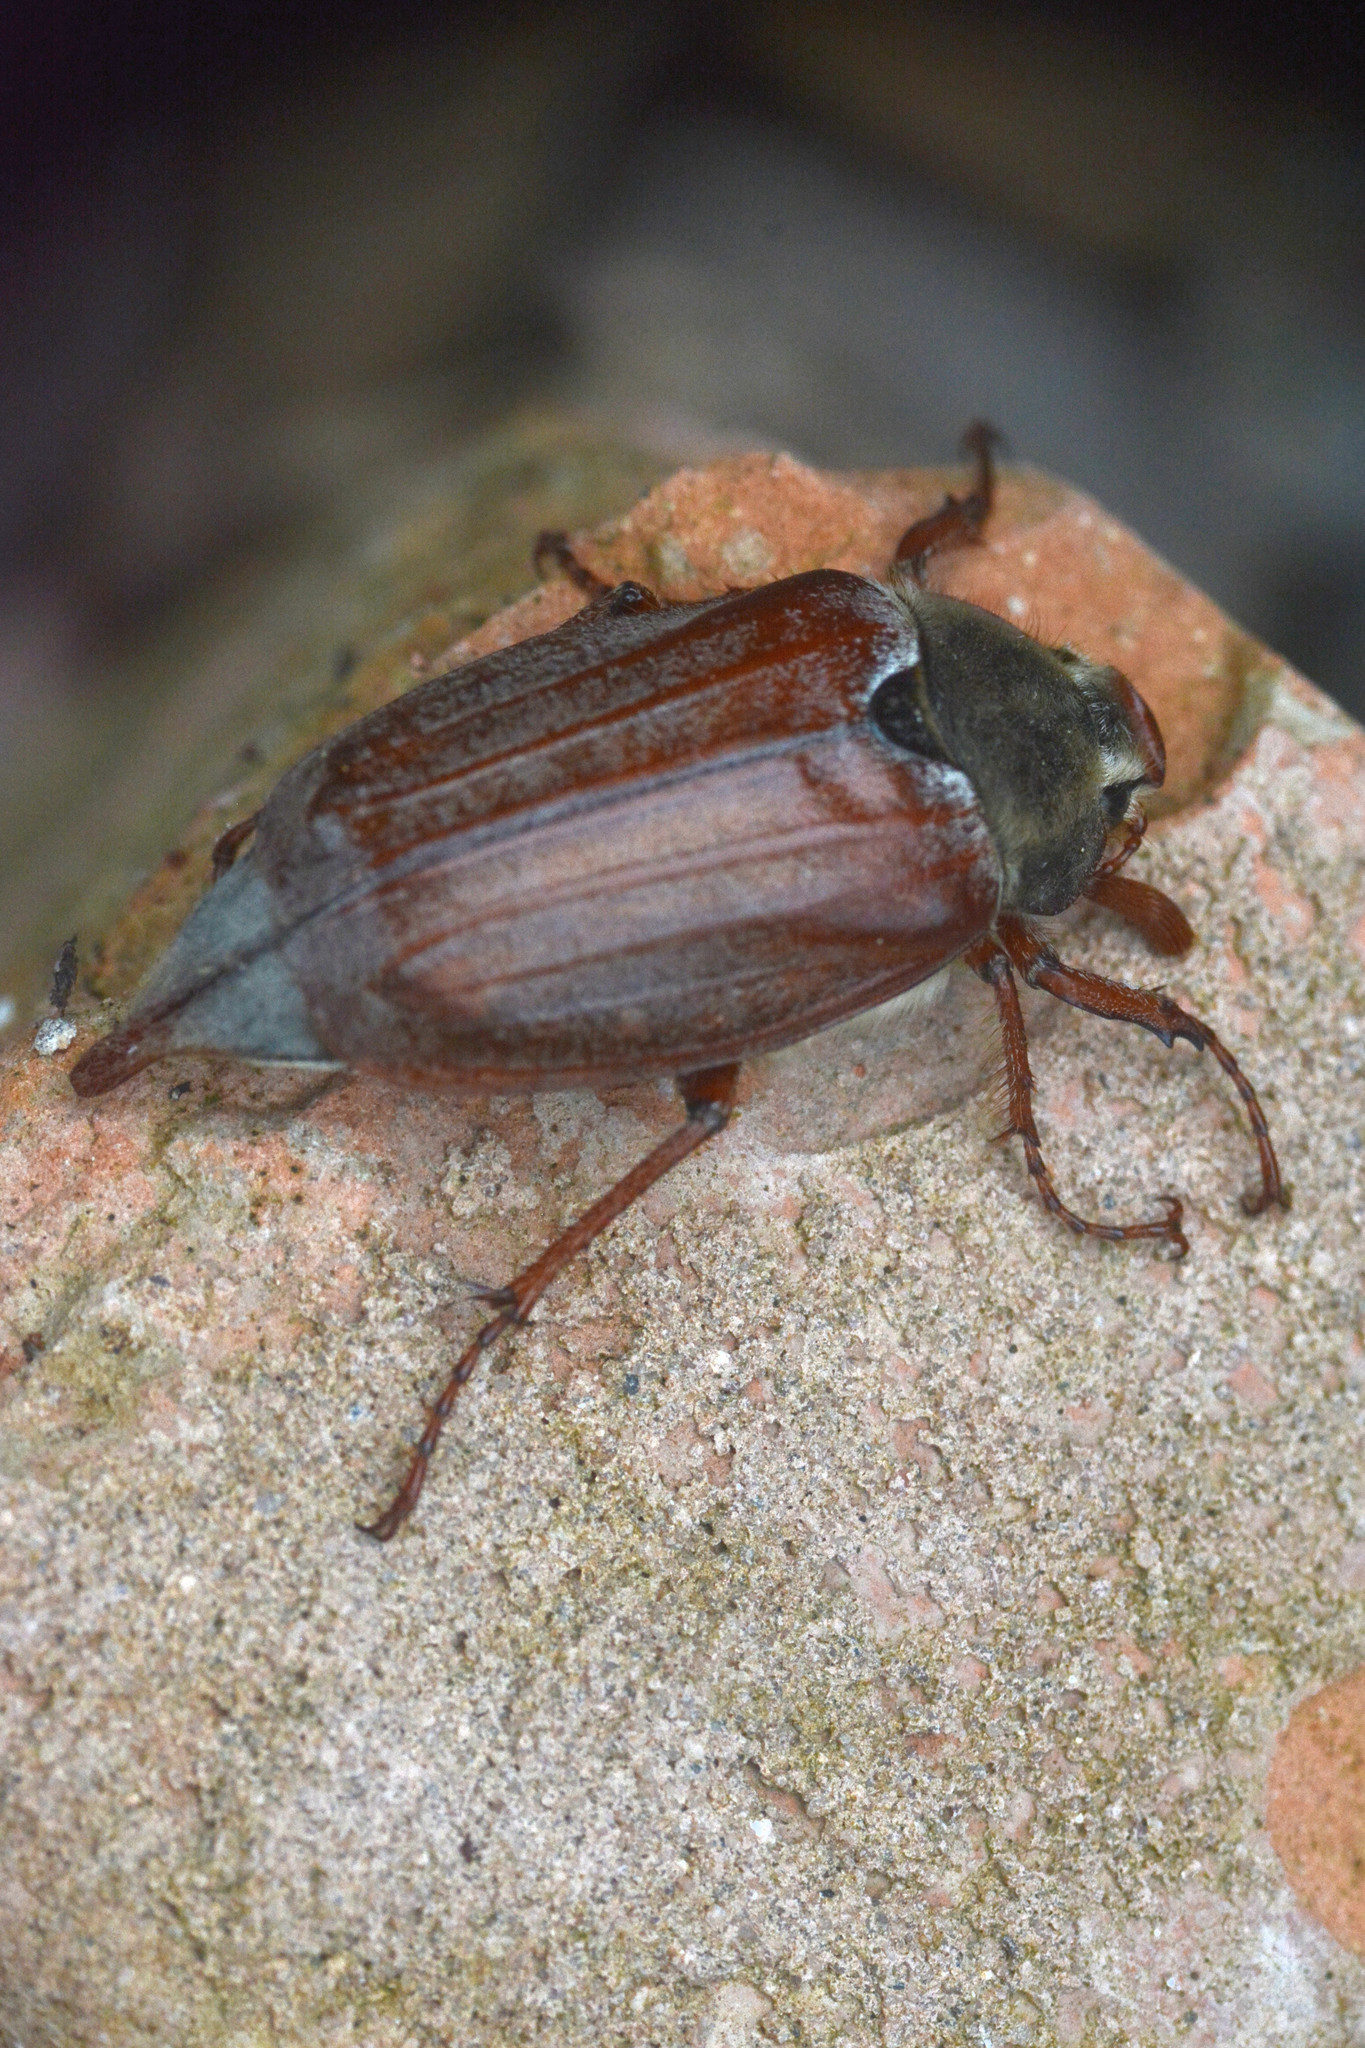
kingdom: Animalia
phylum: Arthropoda
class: Insecta
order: Coleoptera
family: Scarabaeidae
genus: Melolontha
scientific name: Melolontha melolontha
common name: Cockchafer maybeetle
